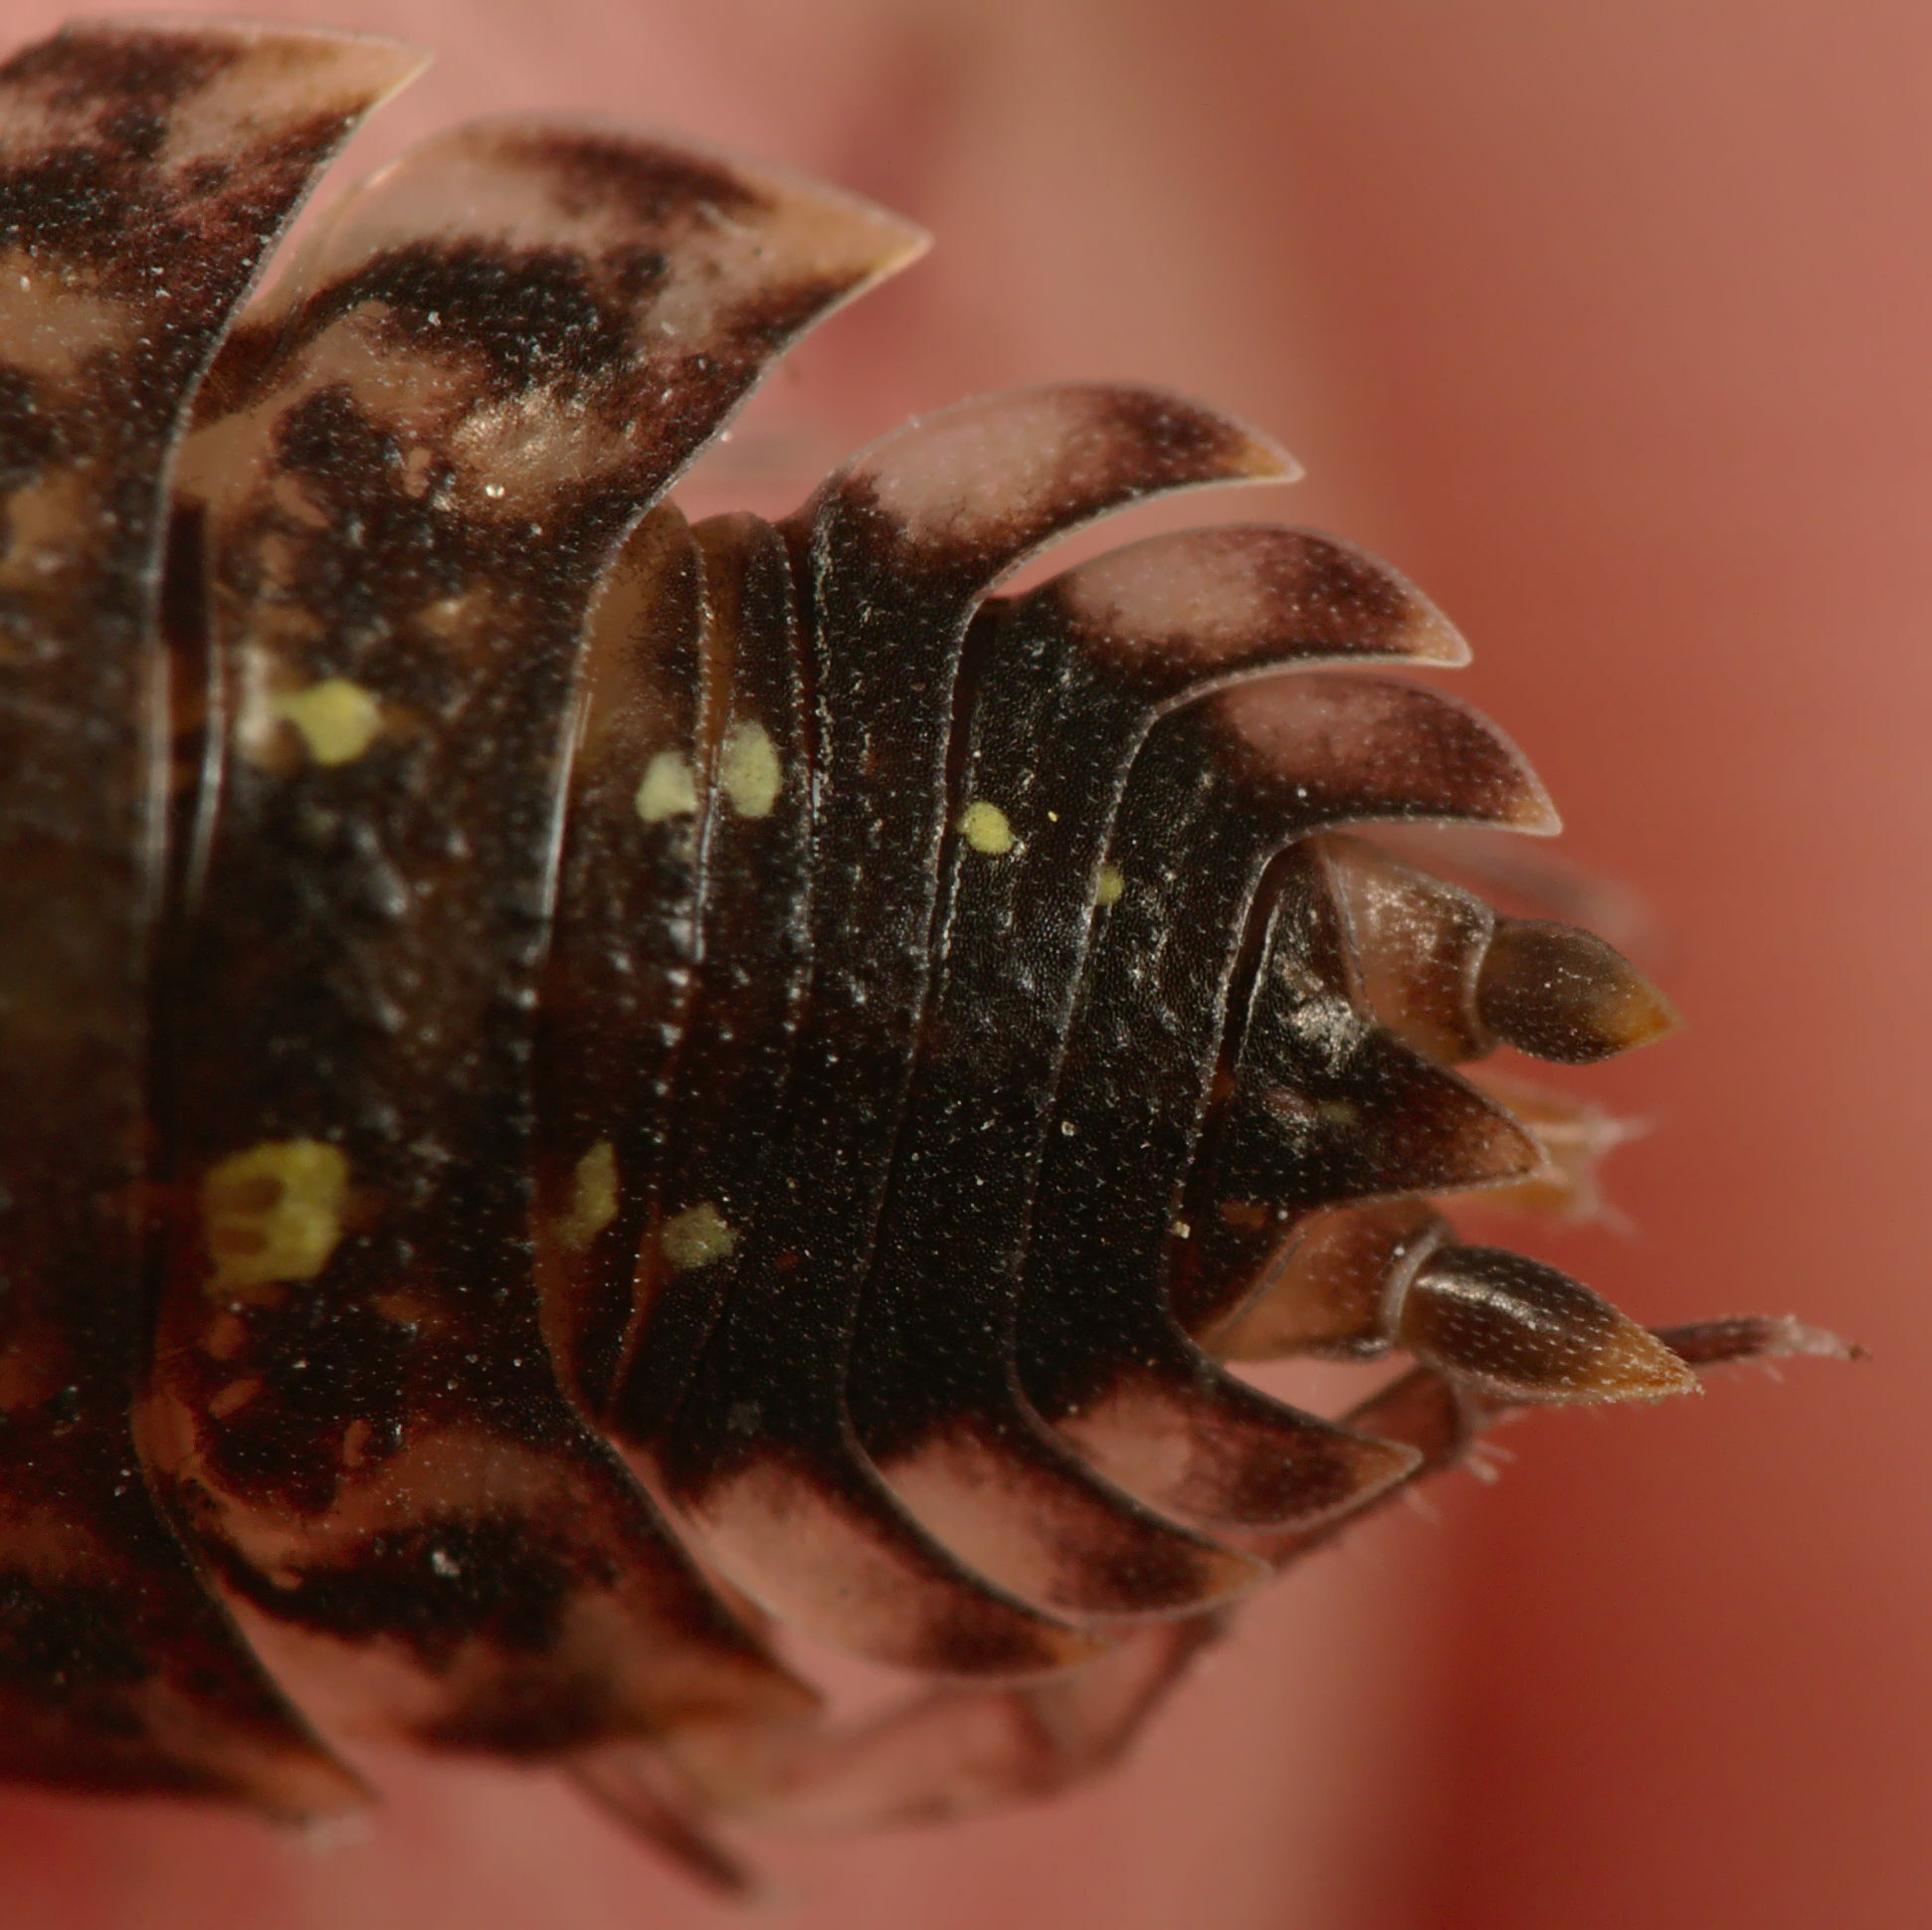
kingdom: Animalia
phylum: Arthropoda
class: Malacostraca
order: Isopoda
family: Porcellionidae
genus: Porcellio
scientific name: Porcellio spinicornis
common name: Painted woodlouse
